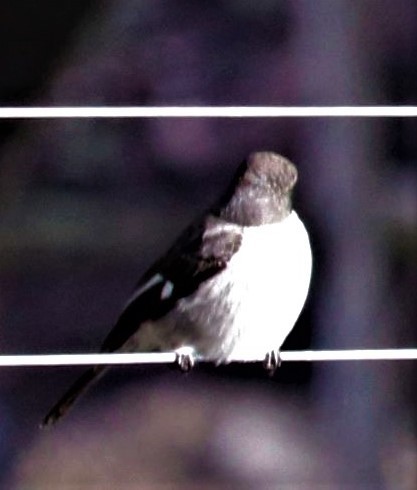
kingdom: Animalia
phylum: Chordata
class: Aves
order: Passeriformes
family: Muscicapidae
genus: Sigelus
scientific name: Sigelus silens
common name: Fiscal flycatcher
